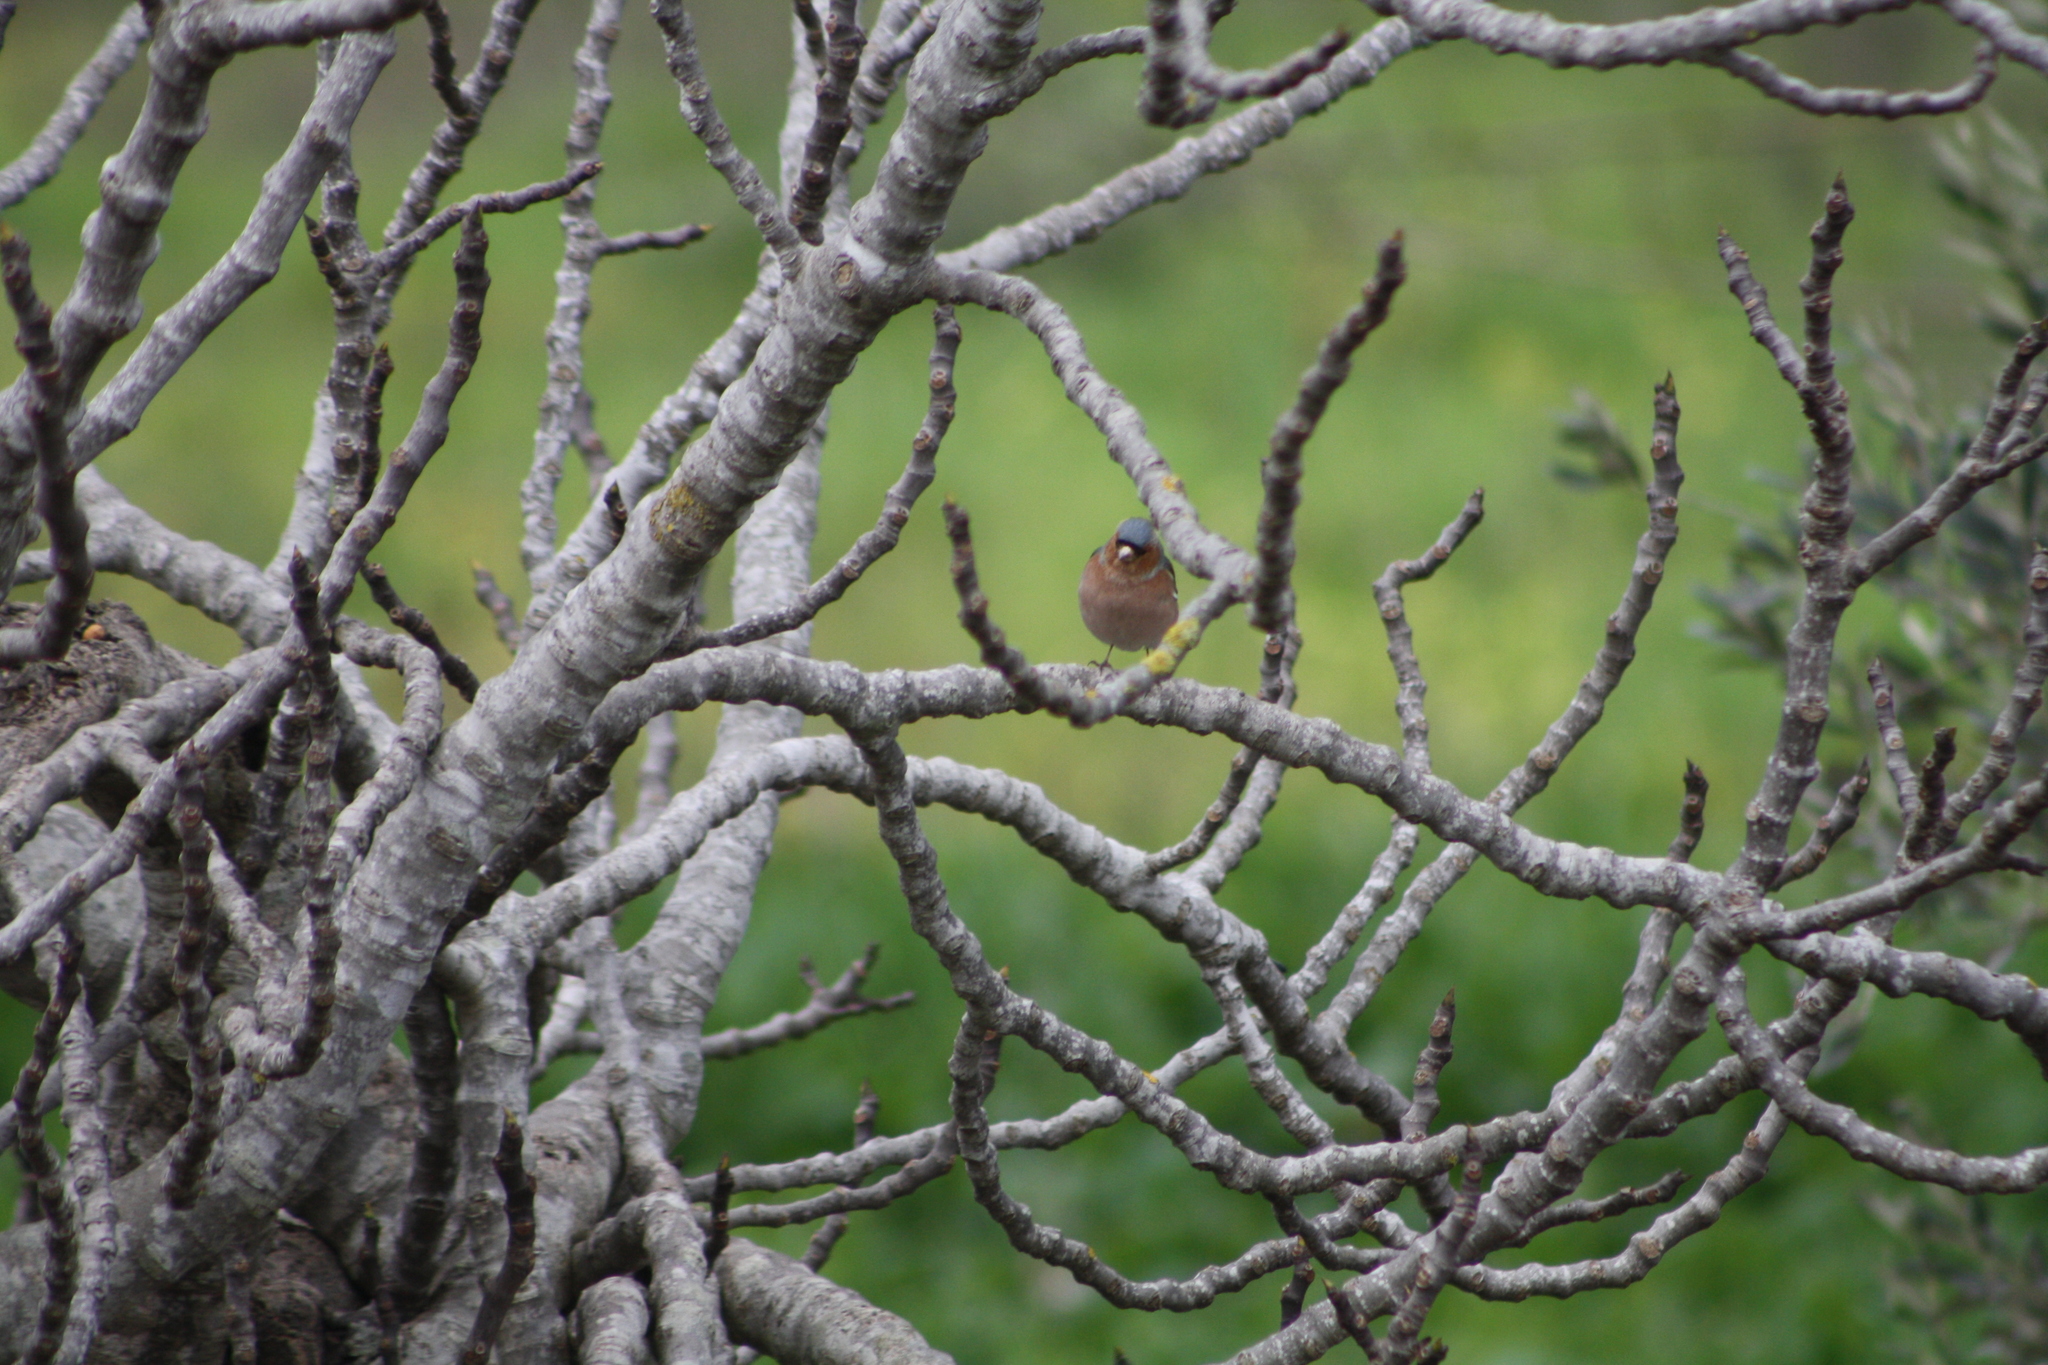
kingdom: Animalia
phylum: Chordata
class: Aves
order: Passeriformes
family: Fringillidae
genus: Fringilla
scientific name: Fringilla coelebs
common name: Common chaffinch
